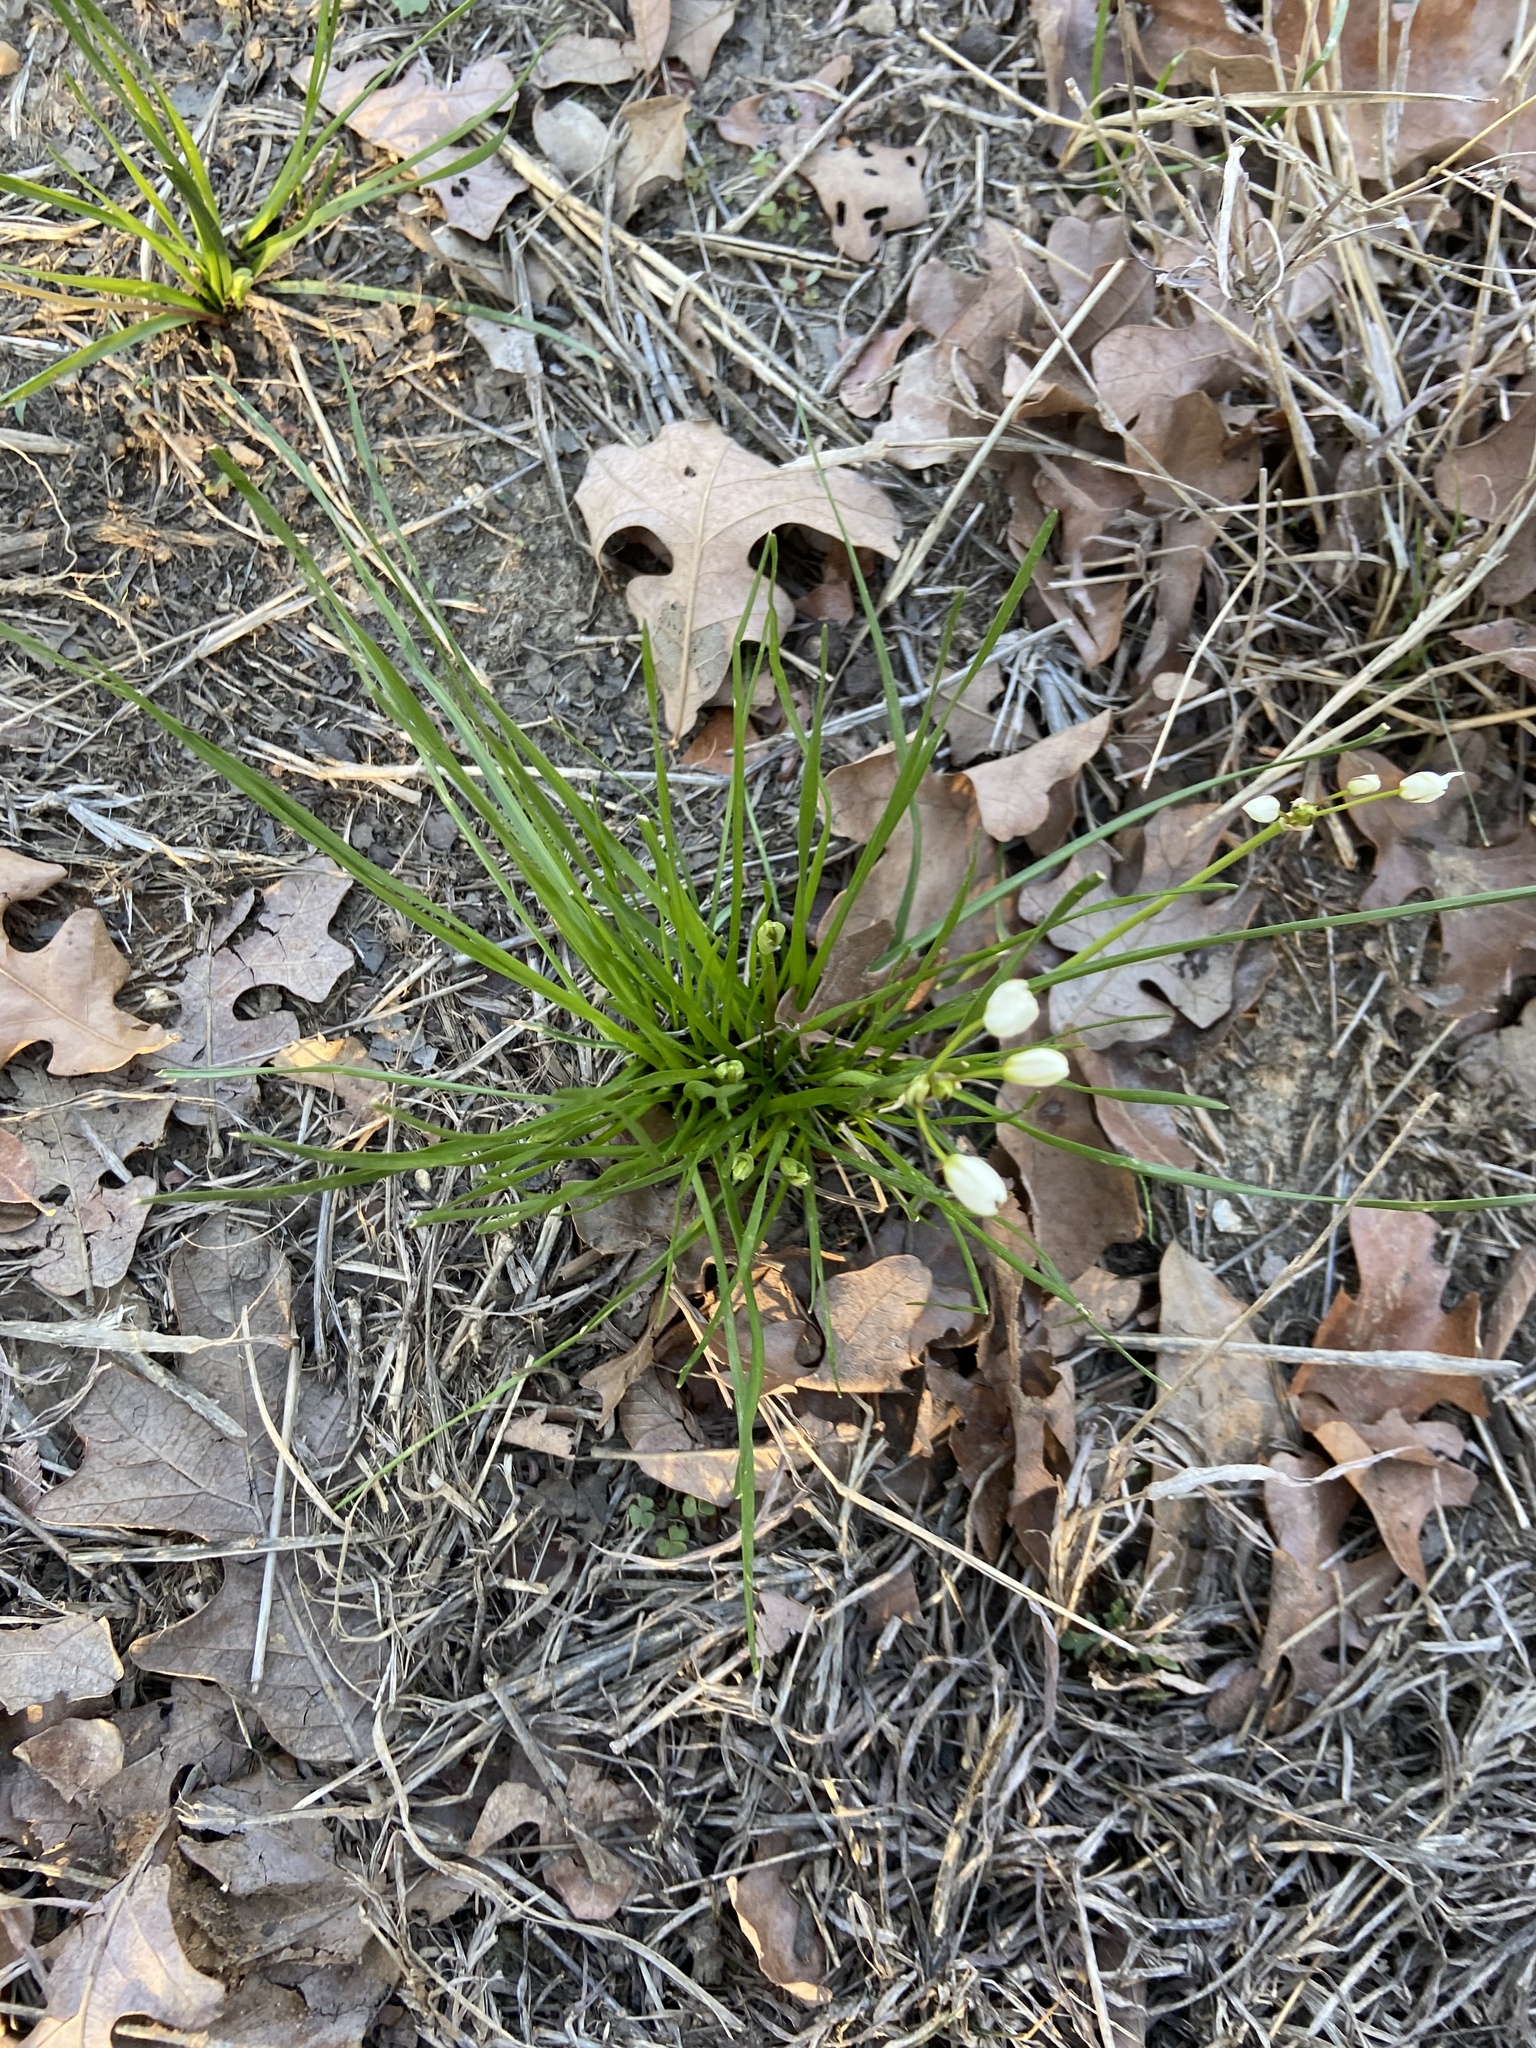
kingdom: Plantae
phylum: Tracheophyta
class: Liliopsida
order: Asparagales
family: Amaryllidaceae
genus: Nothoscordum
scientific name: Nothoscordum bivalve
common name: Crow-poison
